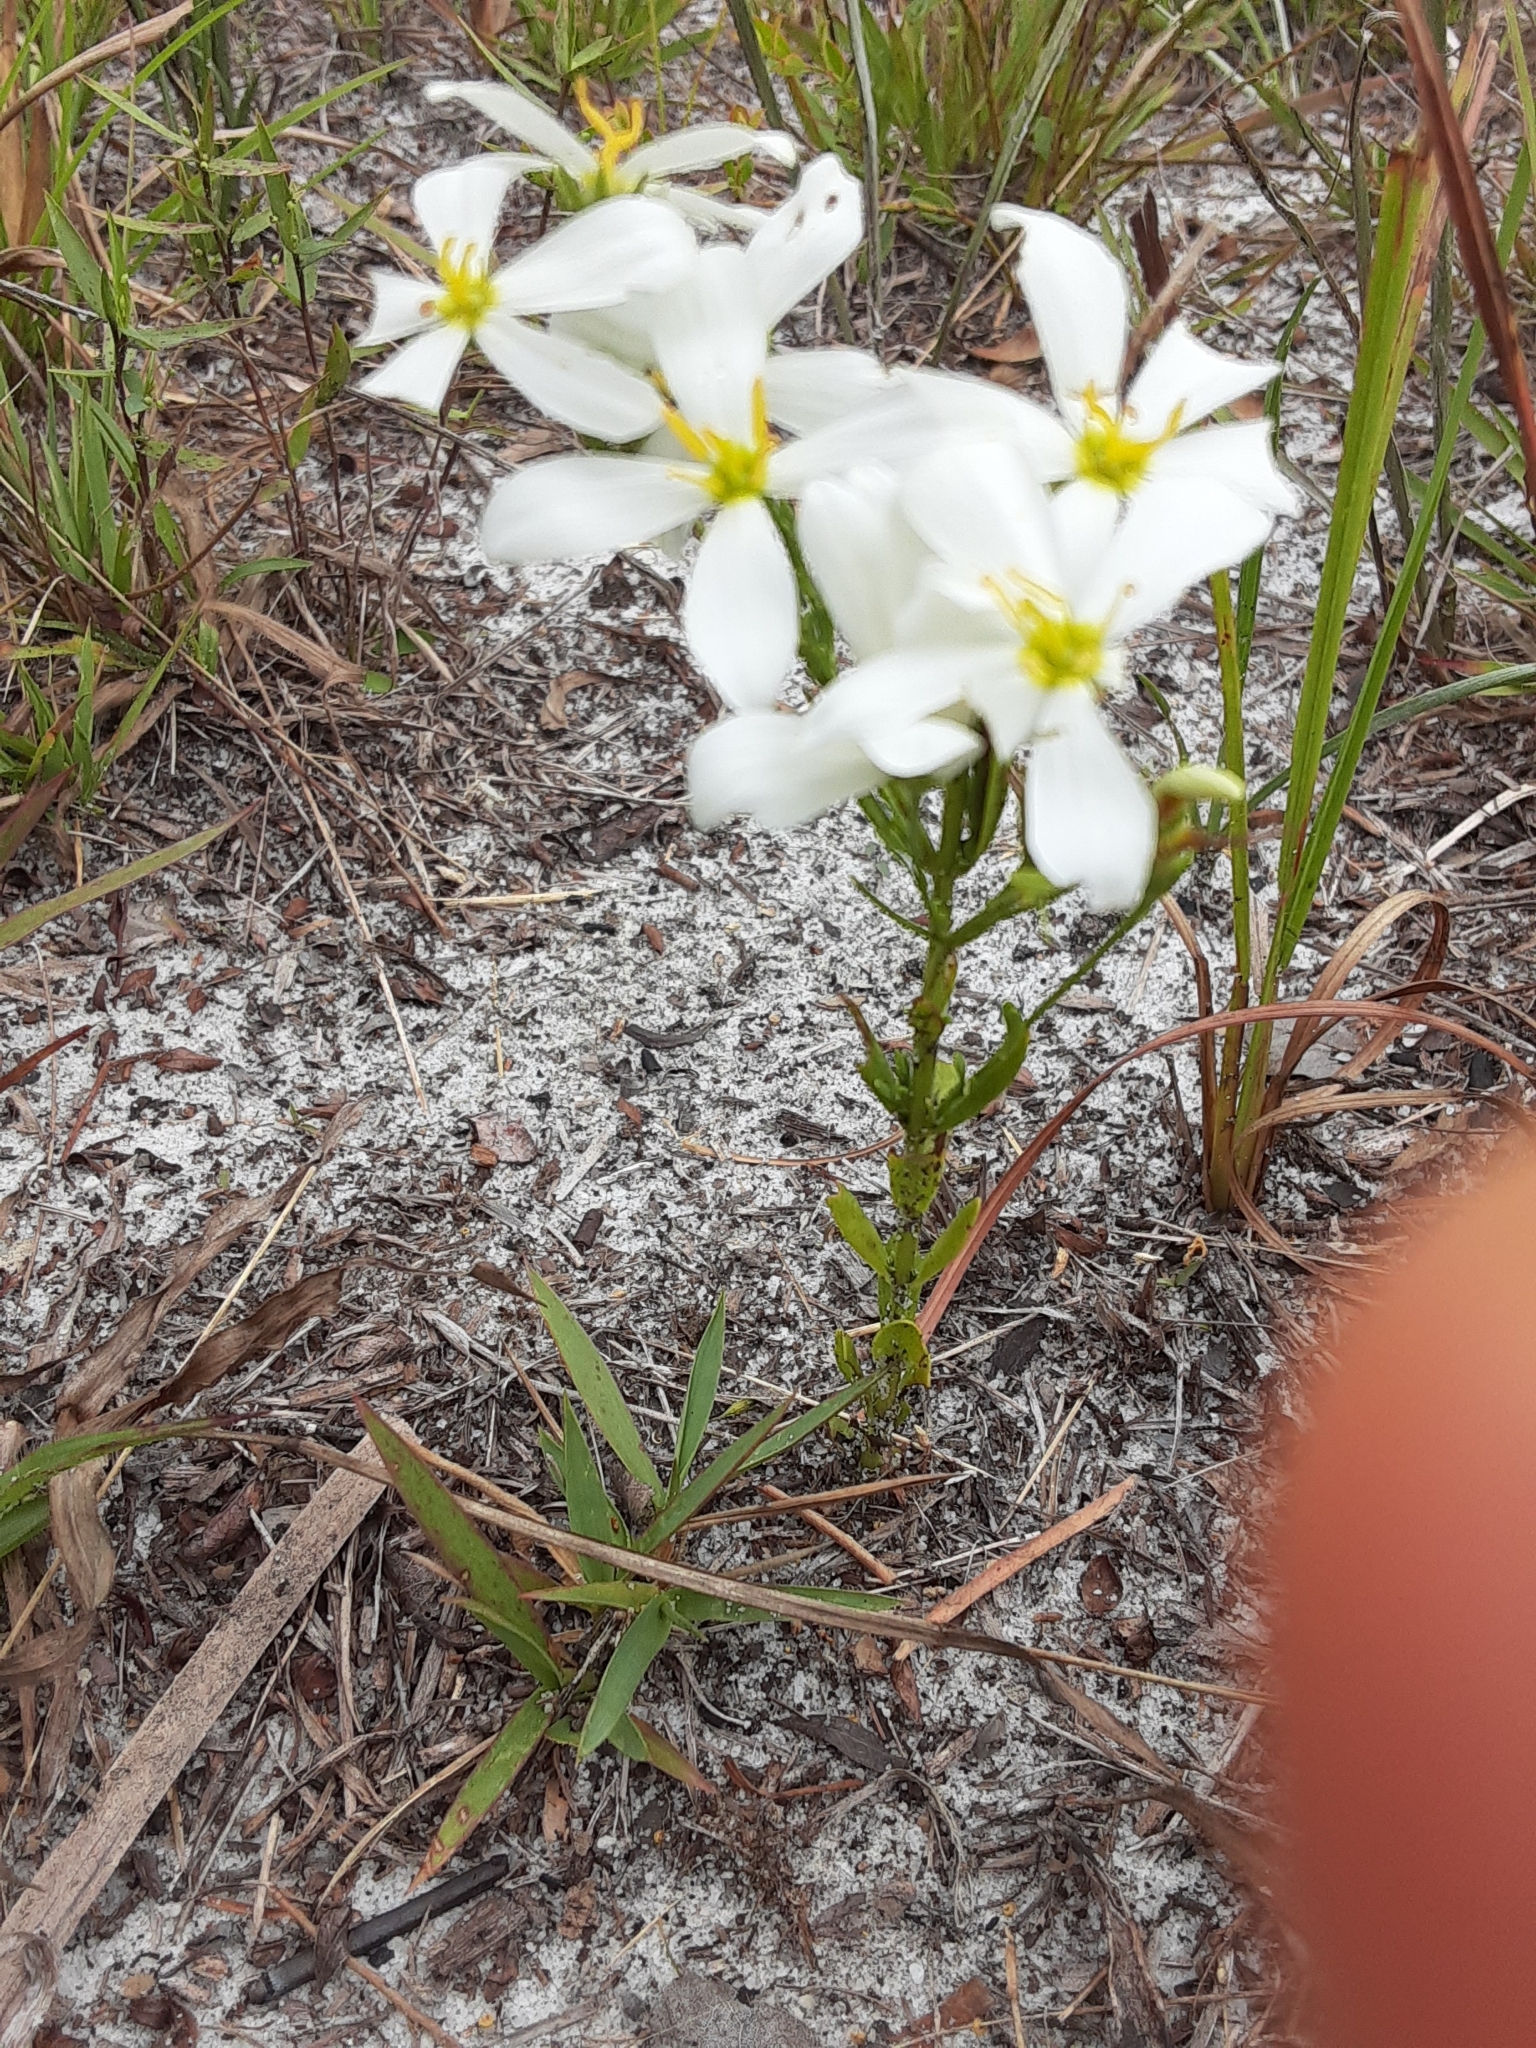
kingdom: Plantae
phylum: Tracheophyta
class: Magnoliopsida
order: Gentianales
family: Gentianaceae
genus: Sabatia
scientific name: Sabatia brevifolia
